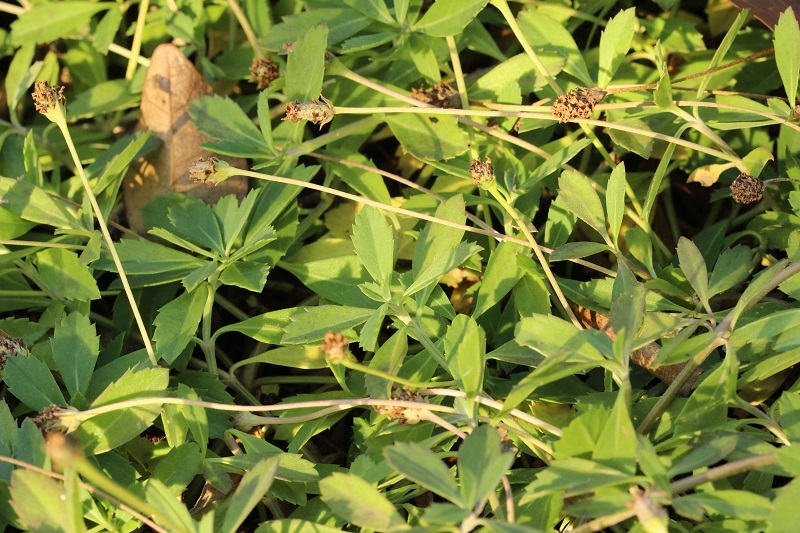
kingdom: Plantae
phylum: Tracheophyta
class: Magnoliopsida
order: Lamiales
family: Verbenaceae
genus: Phyla
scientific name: Phyla nodiflora
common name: Frogfruit
